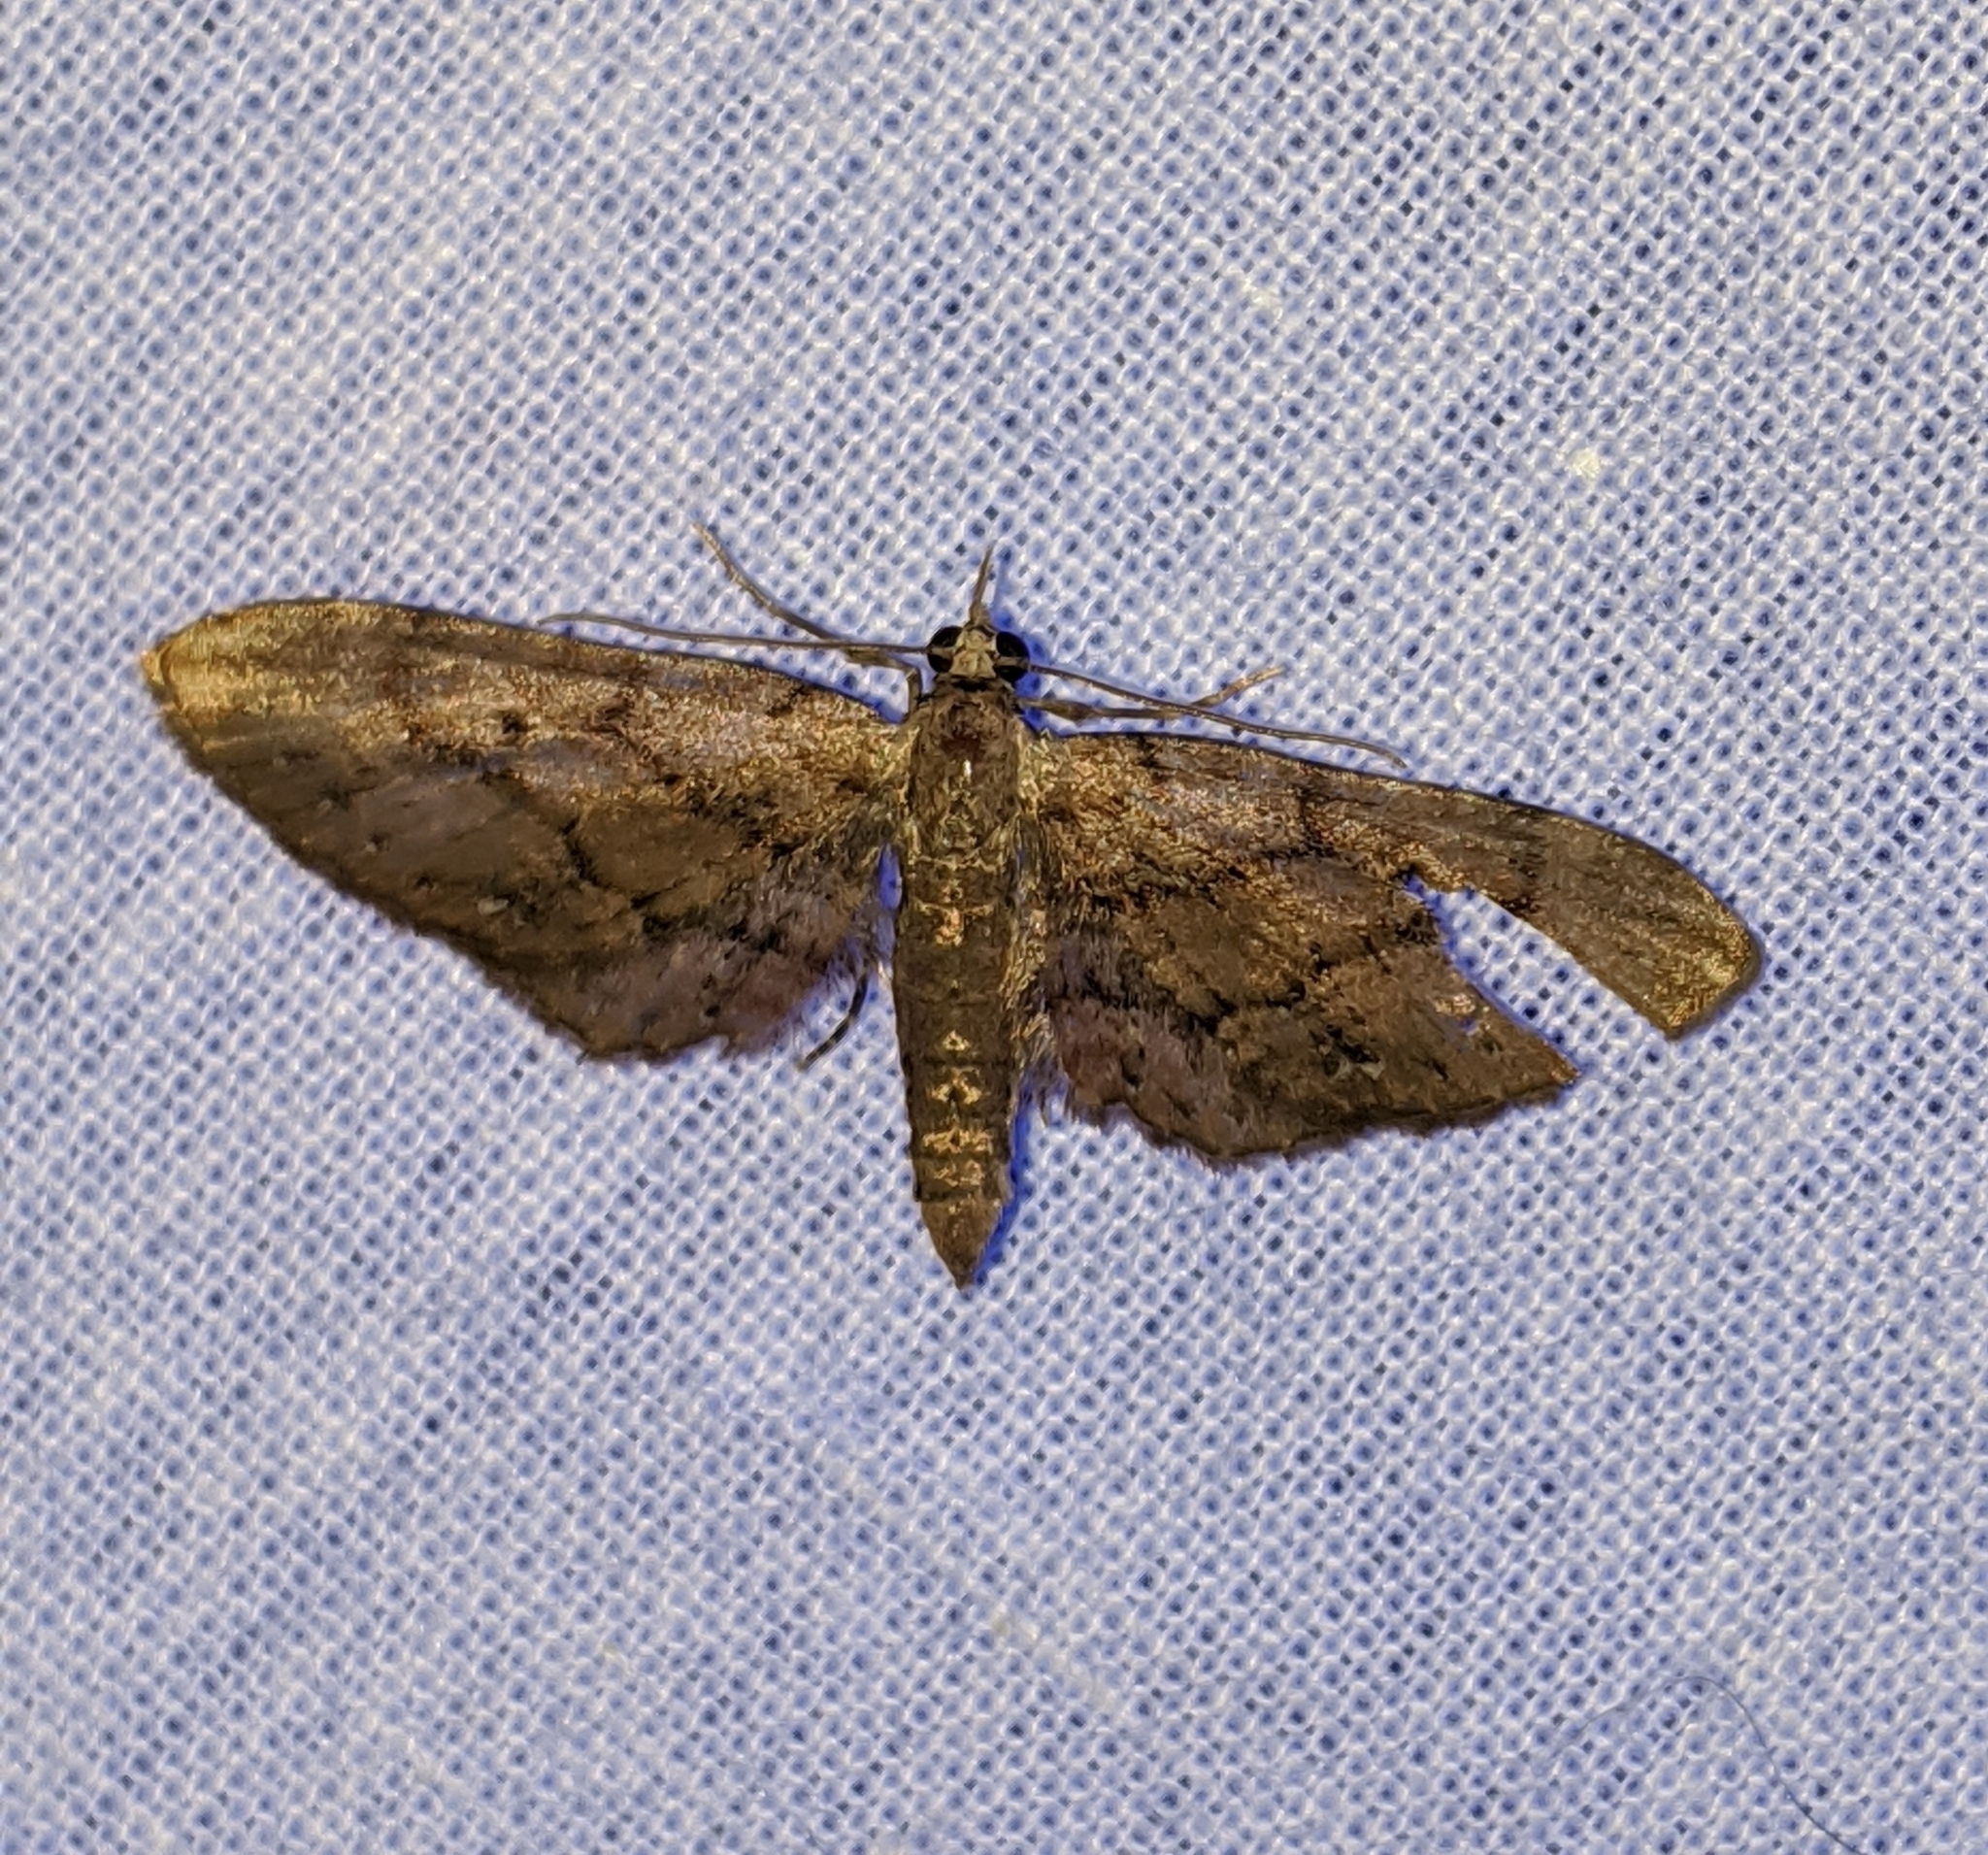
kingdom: Animalia
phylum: Arthropoda
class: Insecta
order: Lepidoptera
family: Geometridae
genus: Eupithecia
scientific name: Eupithecia unicolor
